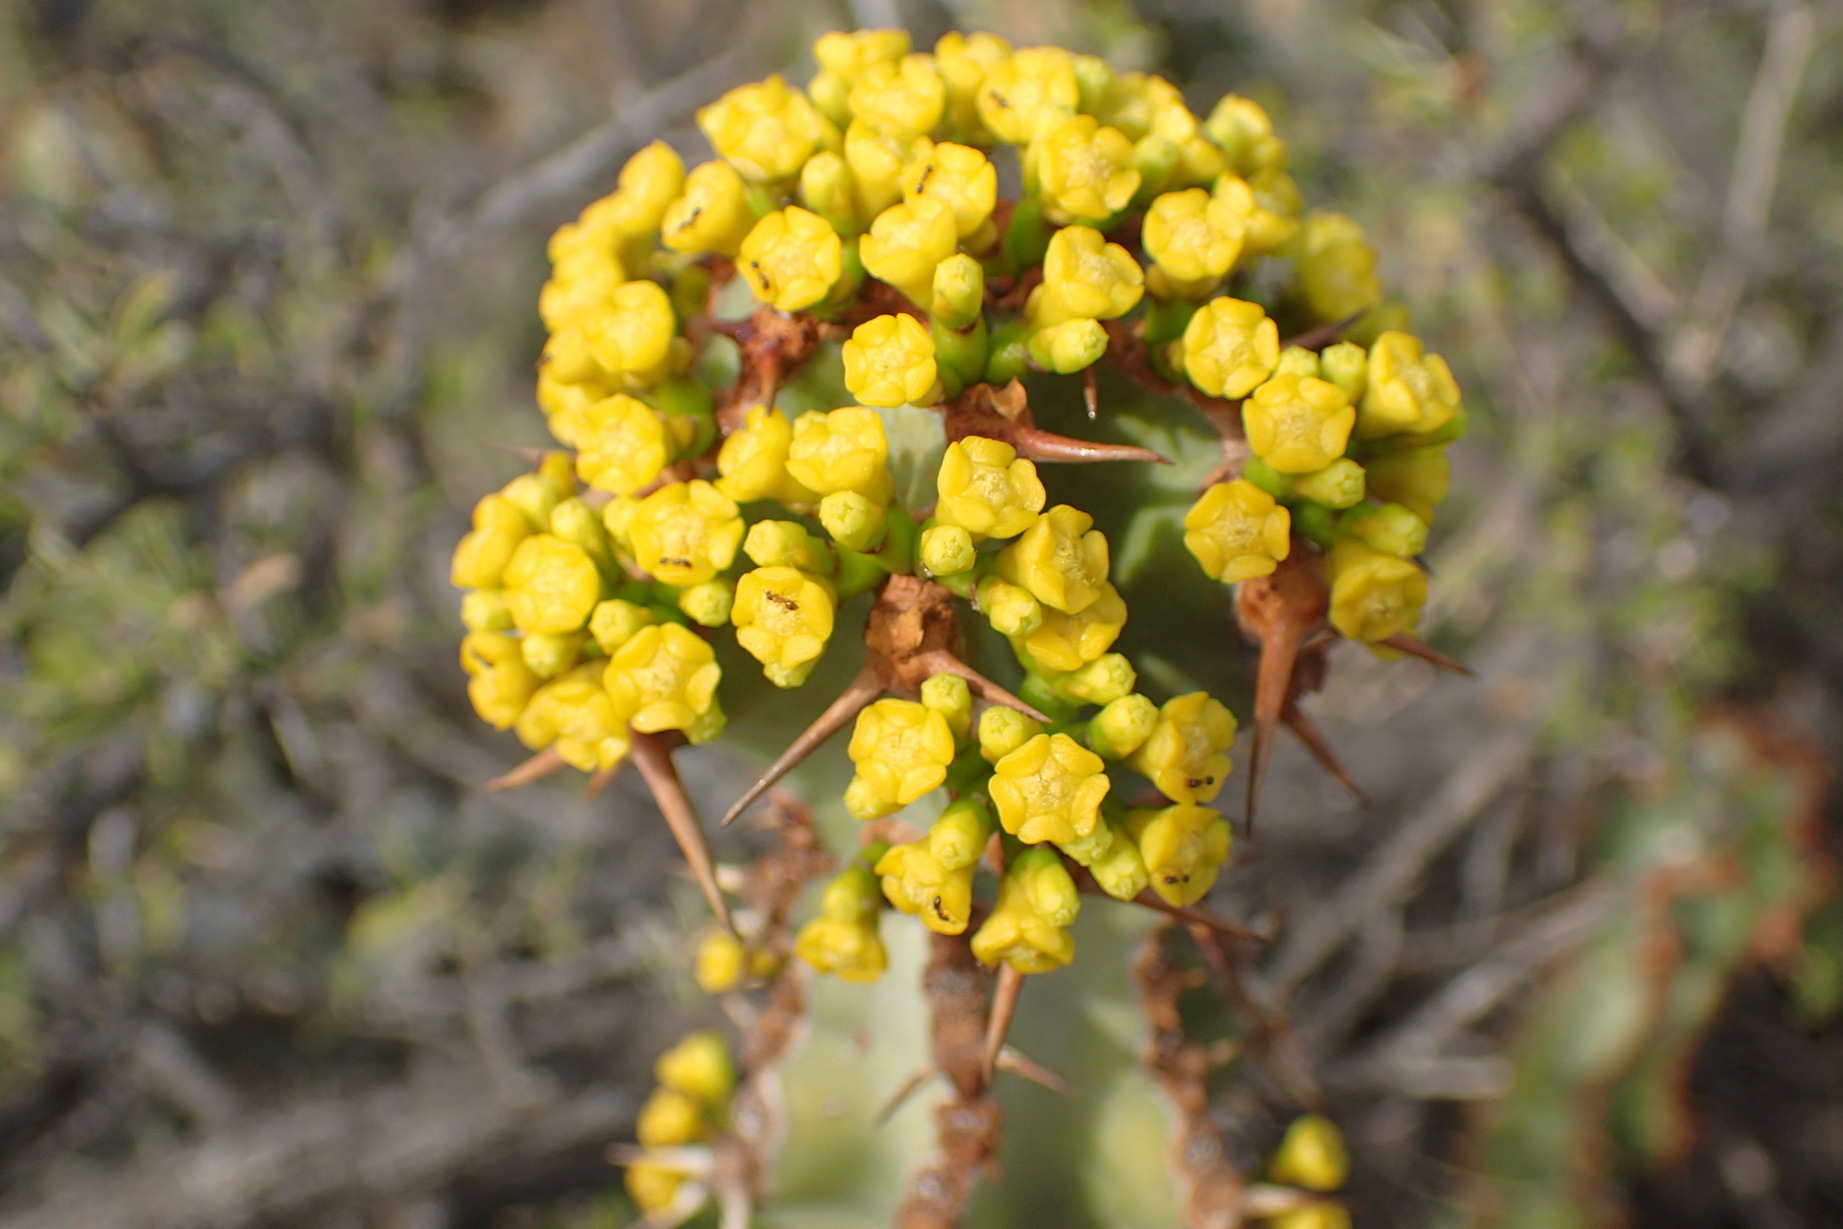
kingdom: Plantae
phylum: Tracheophyta
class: Magnoliopsida
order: Malpighiales
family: Euphorbiaceae
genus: Euphorbia
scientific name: Euphorbia radyeri
